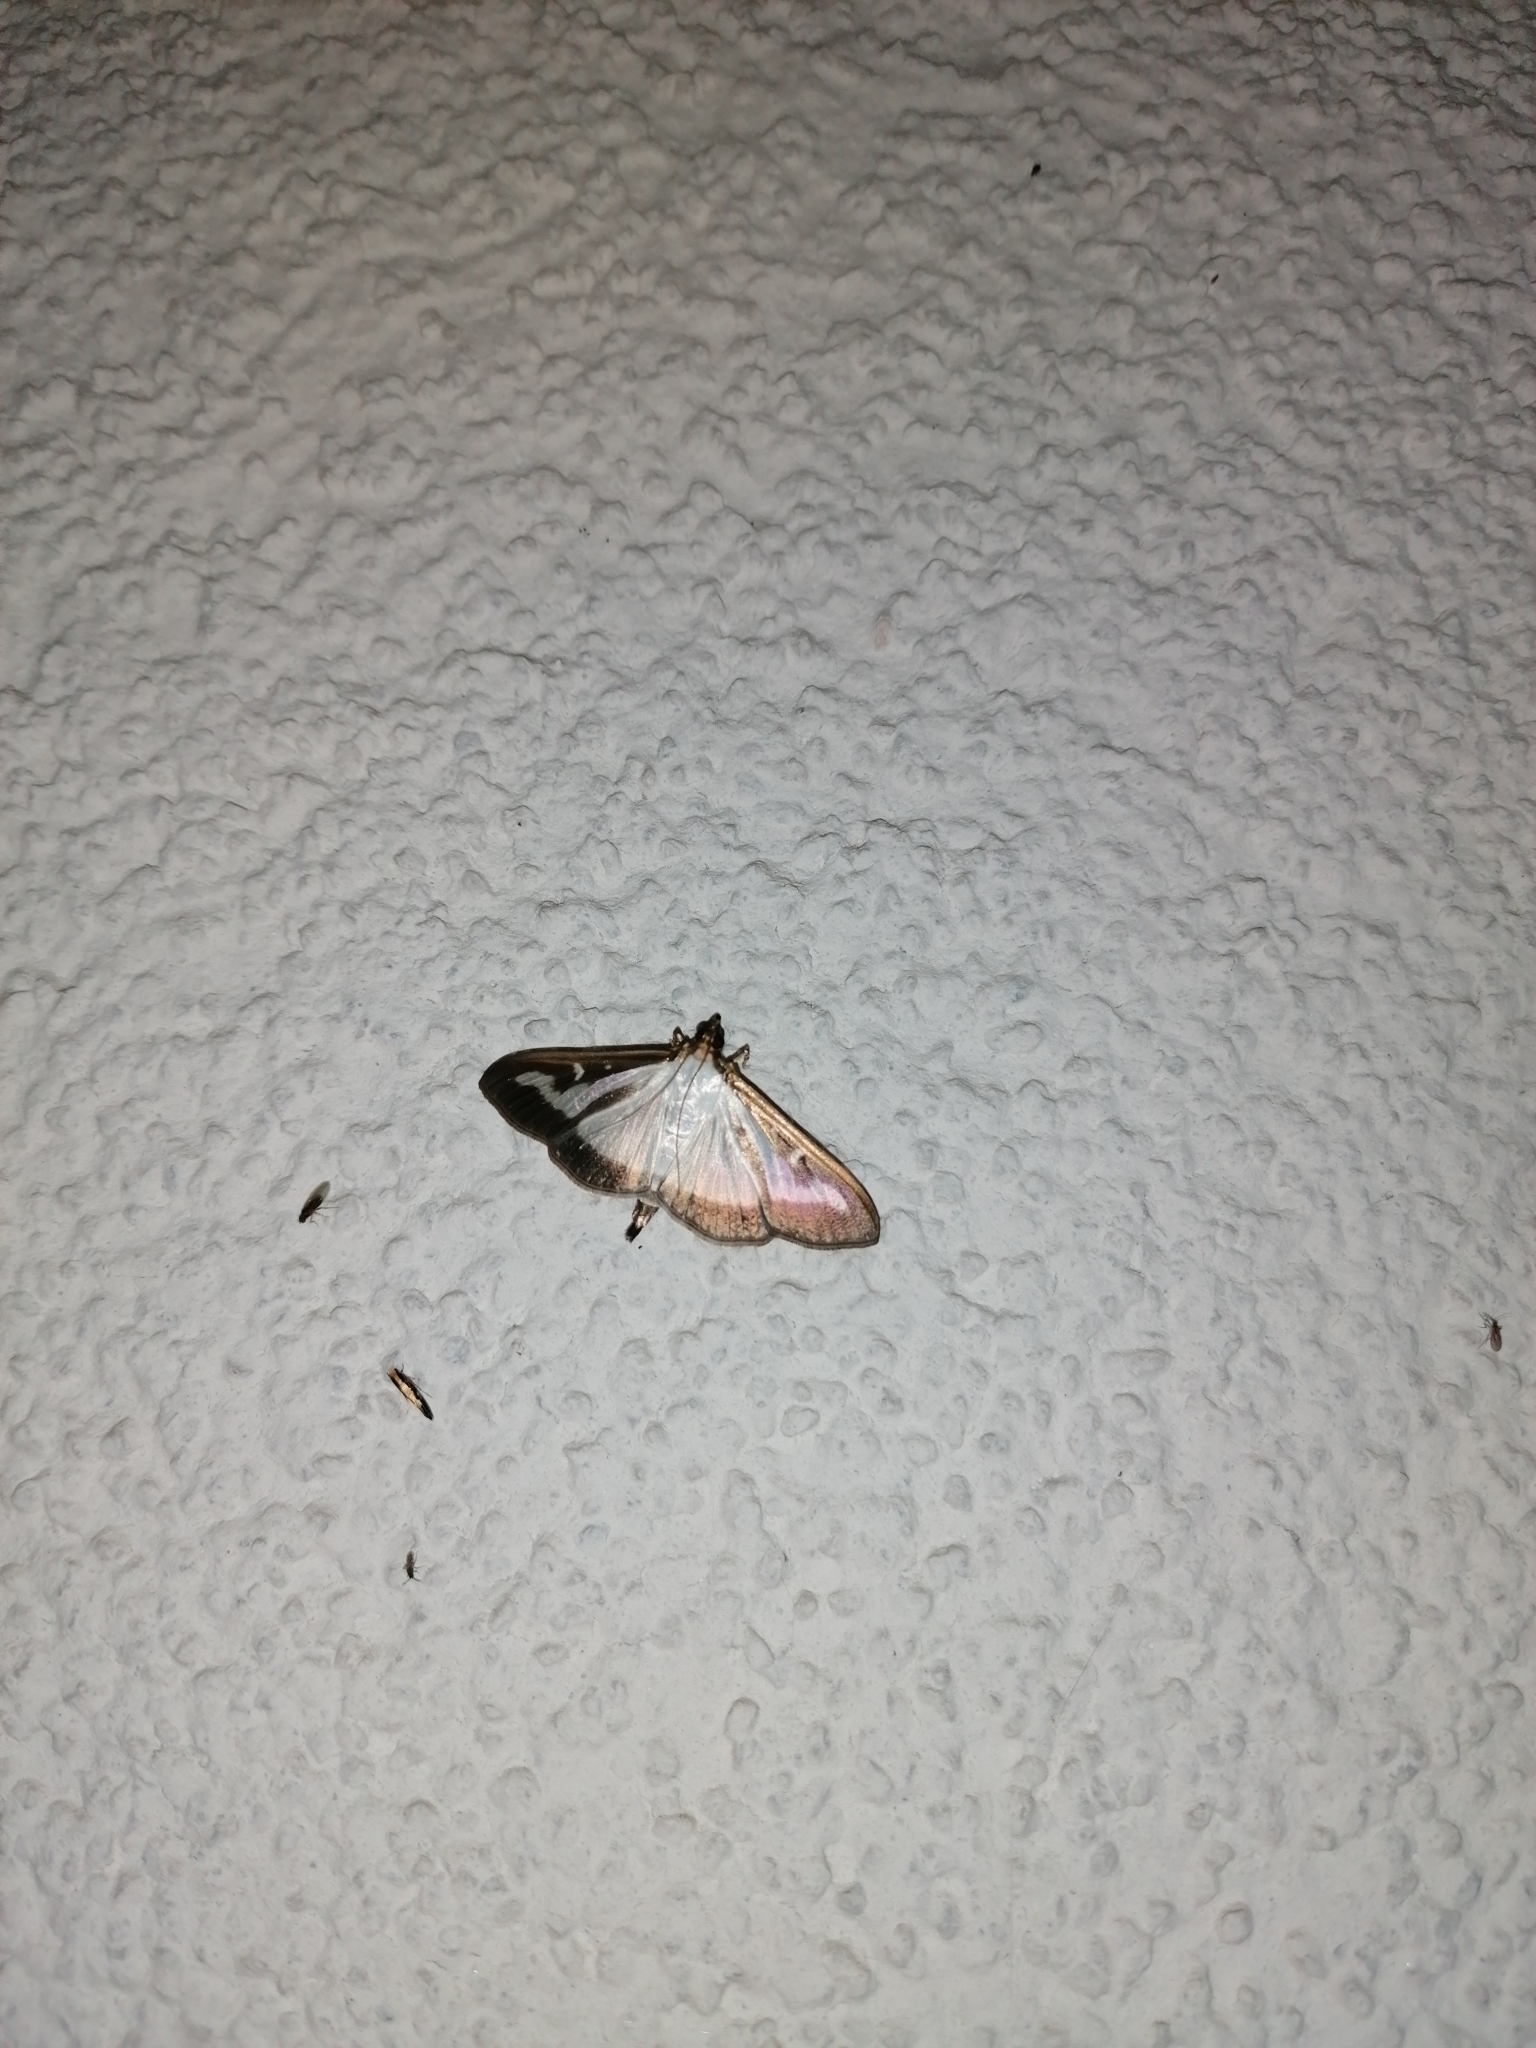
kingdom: Animalia
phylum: Arthropoda
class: Insecta
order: Lepidoptera
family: Crambidae
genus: Cydalima
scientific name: Cydalima perspectalis
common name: Box tree moth
